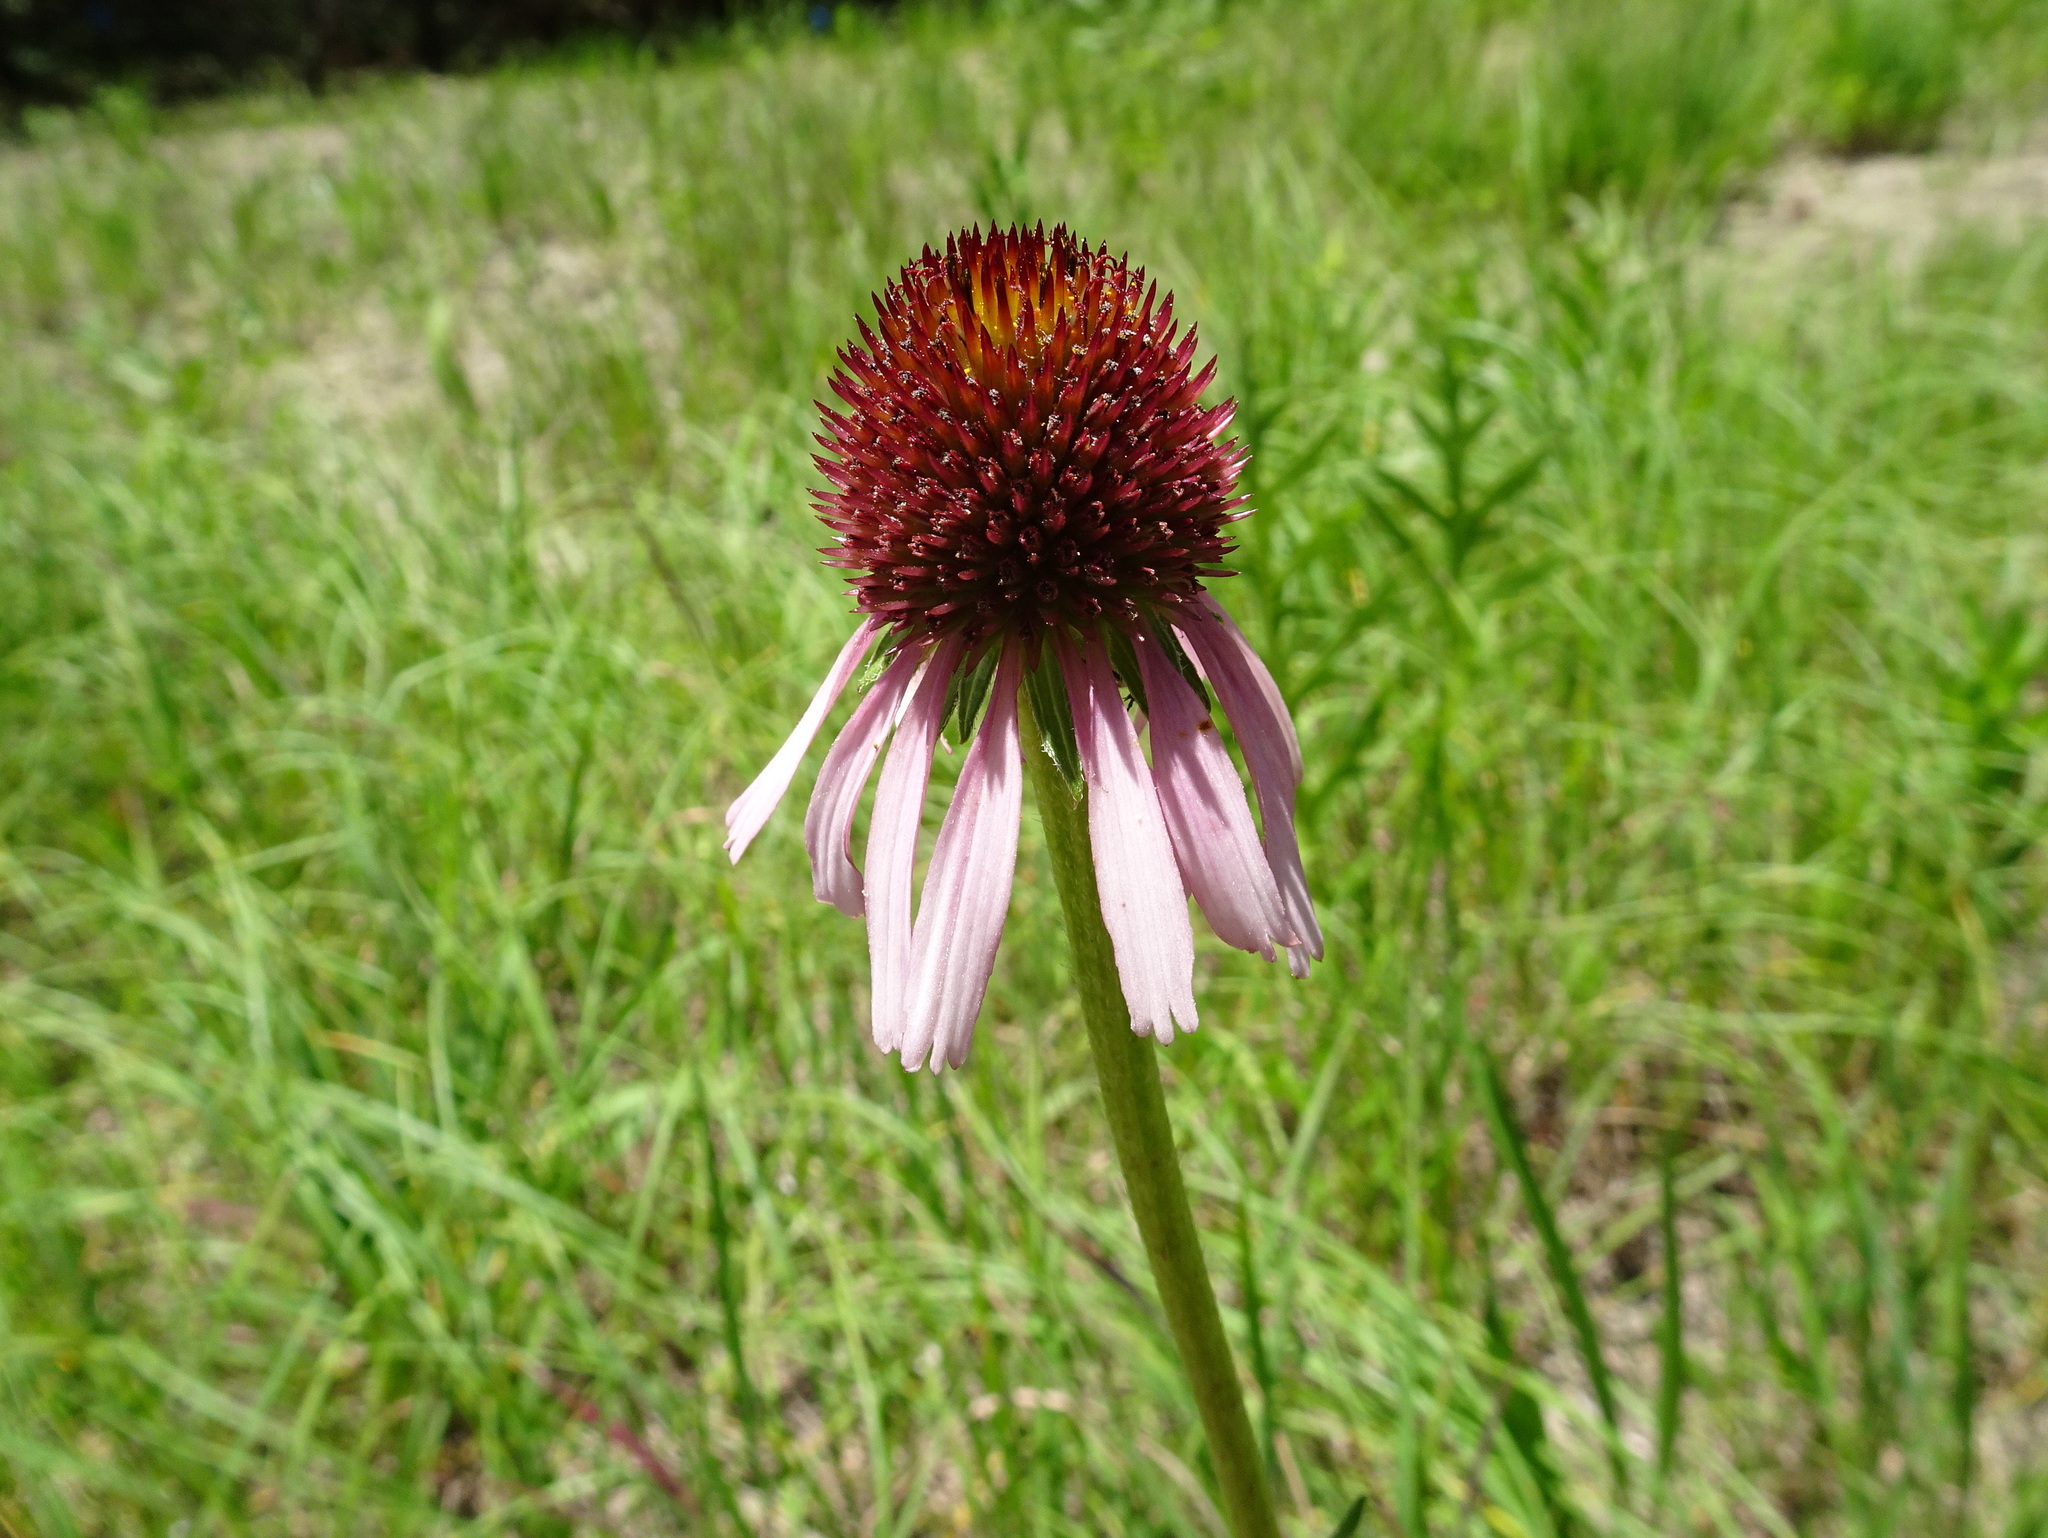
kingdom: Plantae
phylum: Tracheophyta
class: Magnoliopsida
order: Asterales
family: Asteraceae
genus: Echinacea
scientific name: Echinacea atrorubens
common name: Topeka purple-coneflower
